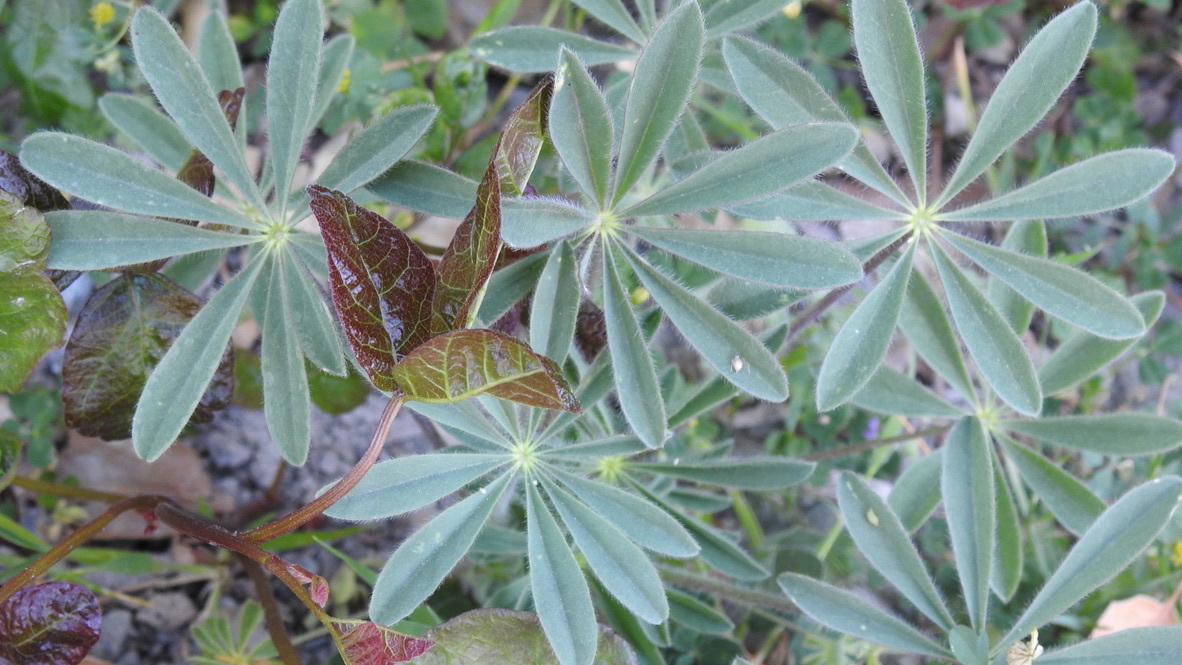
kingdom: Plantae
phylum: Tracheophyta
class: Magnoliopsida
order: Sapindales
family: Anacardiaceae
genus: Toxicodendron
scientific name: Toxicodendron diversilobum
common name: Pacific poison-oak
